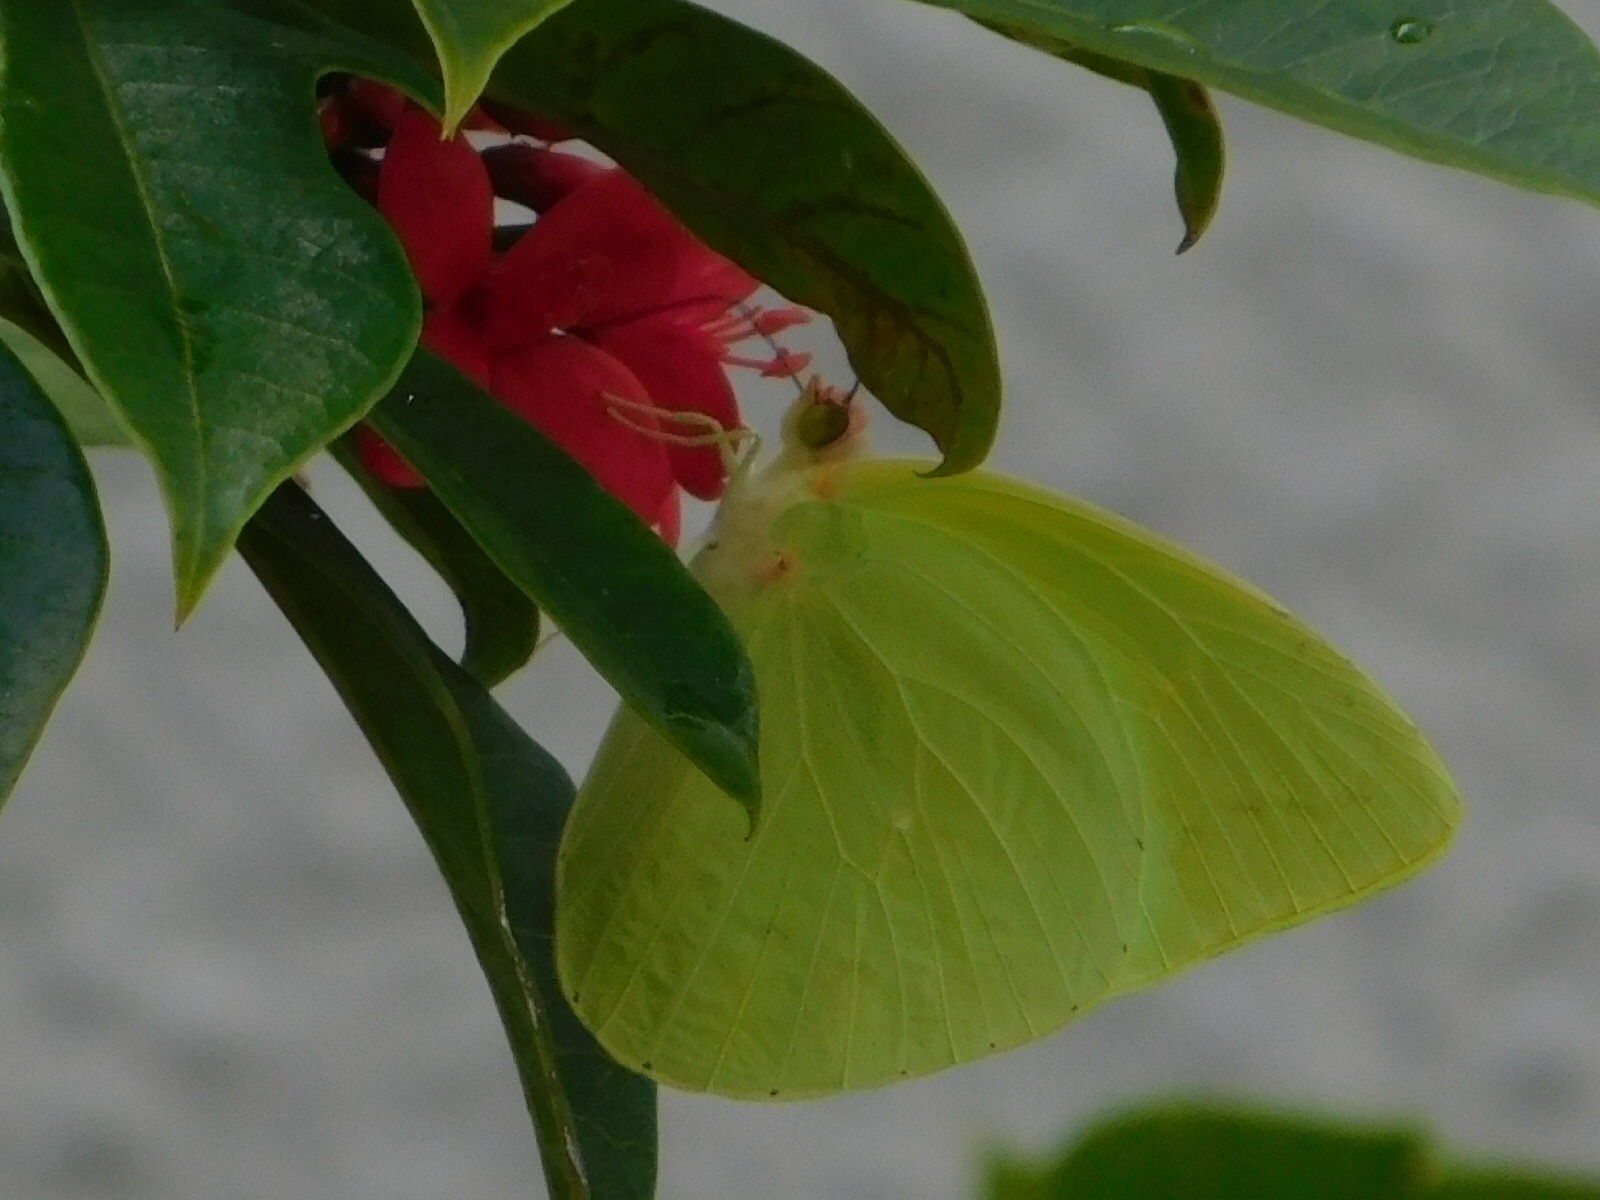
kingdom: Animalia
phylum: Arthropoda
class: Insecta
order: Lepidoptera
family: Pieridae
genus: Aphrissa
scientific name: Aphrissa neleis
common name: Pink-spot sulphur
